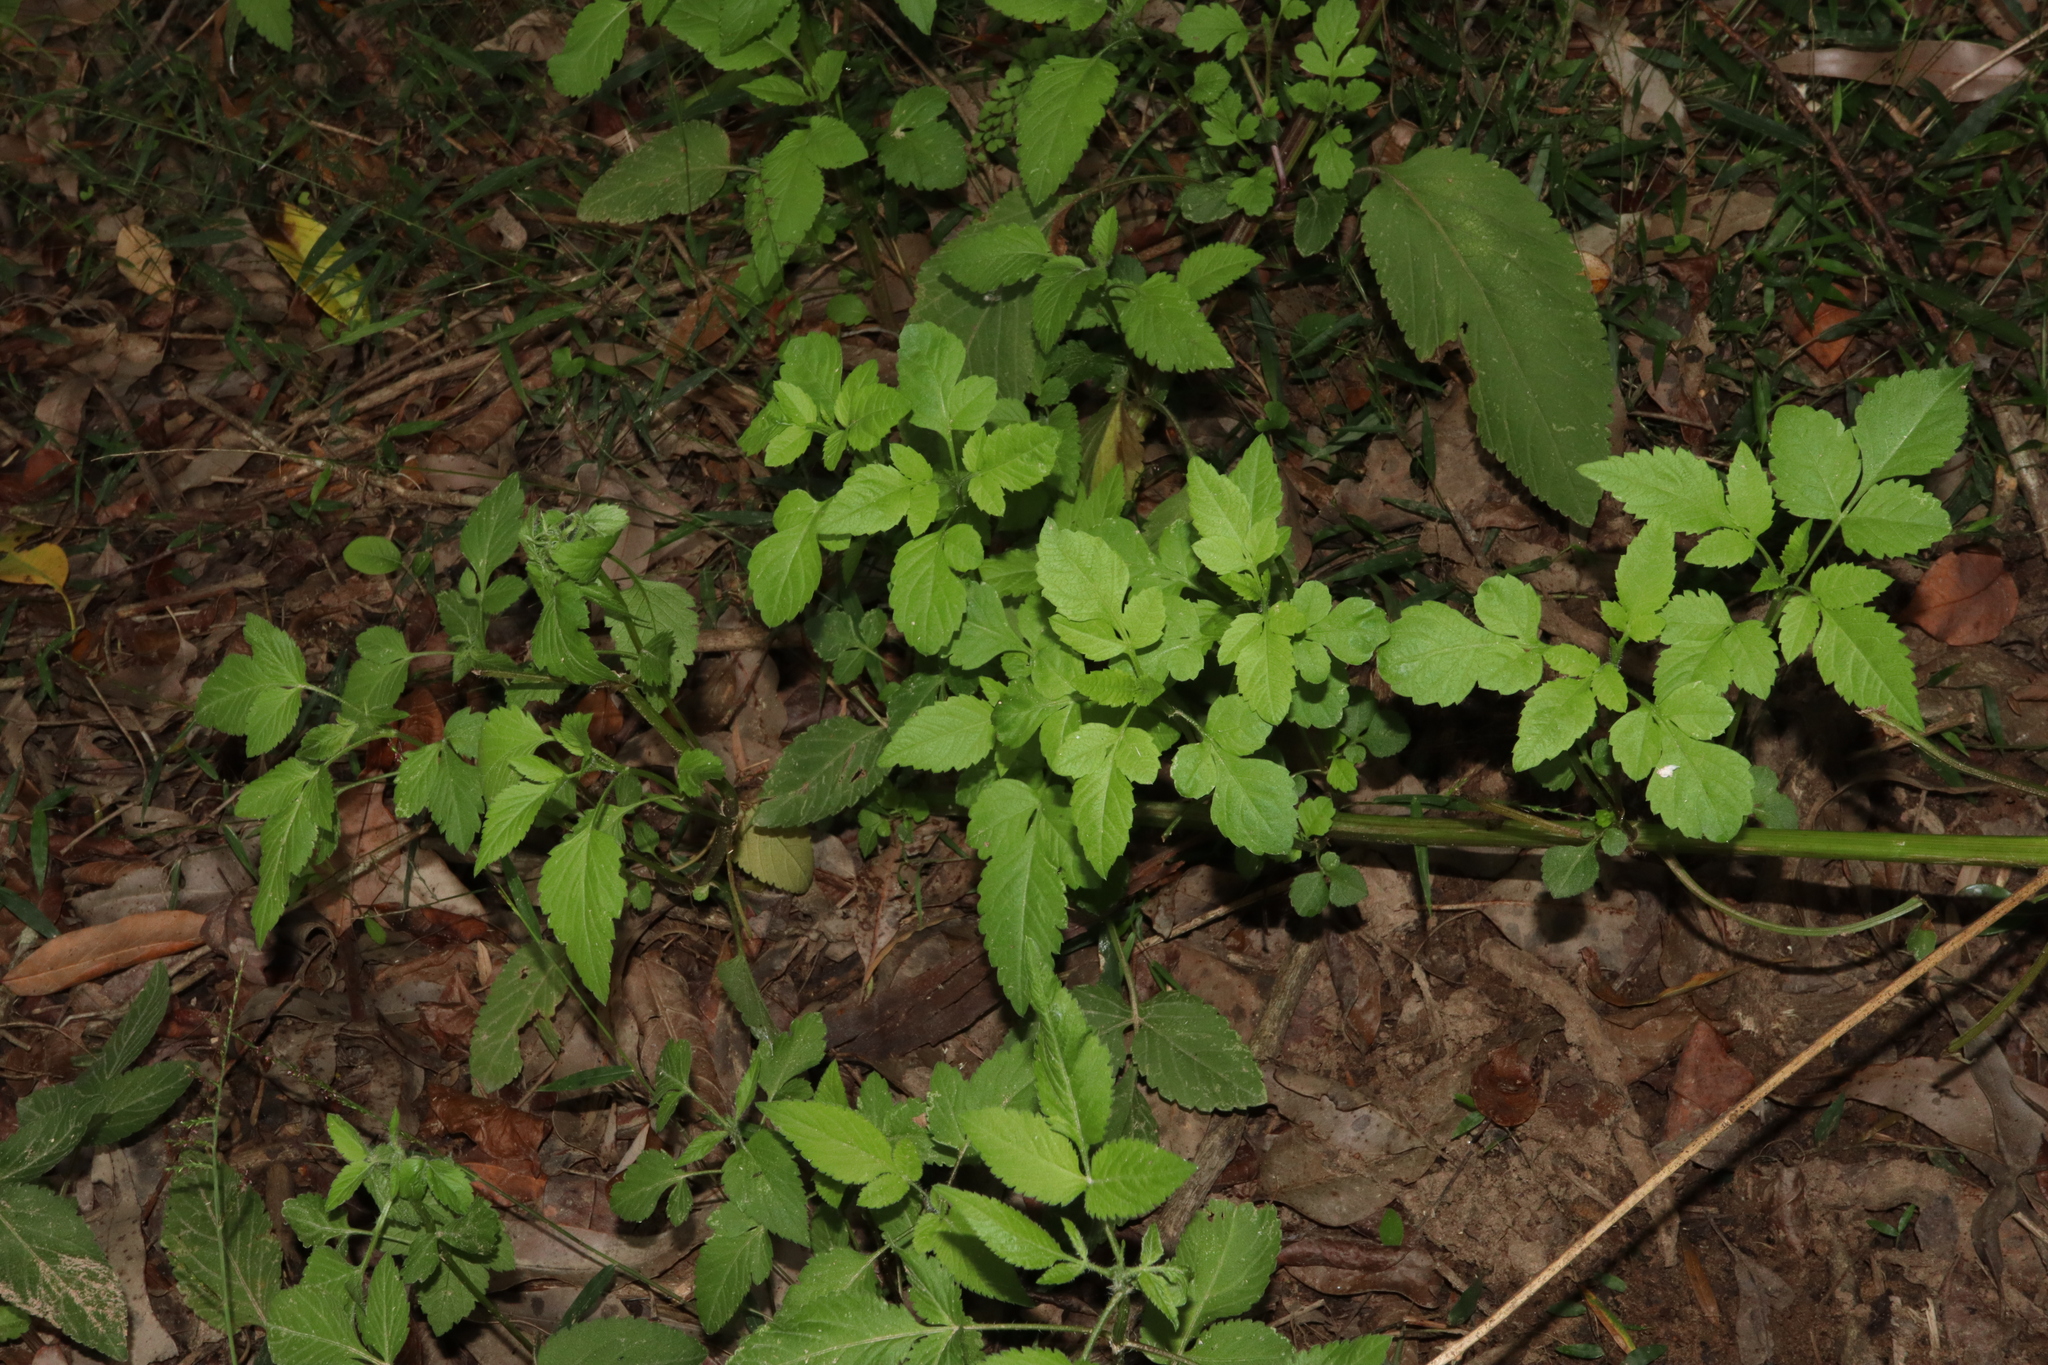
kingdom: Plantae
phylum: Tracheophyta
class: Magnoliopsida
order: Asterales
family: Asteraceae
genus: Bidens
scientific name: Bidens pilosa
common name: Black-jack
